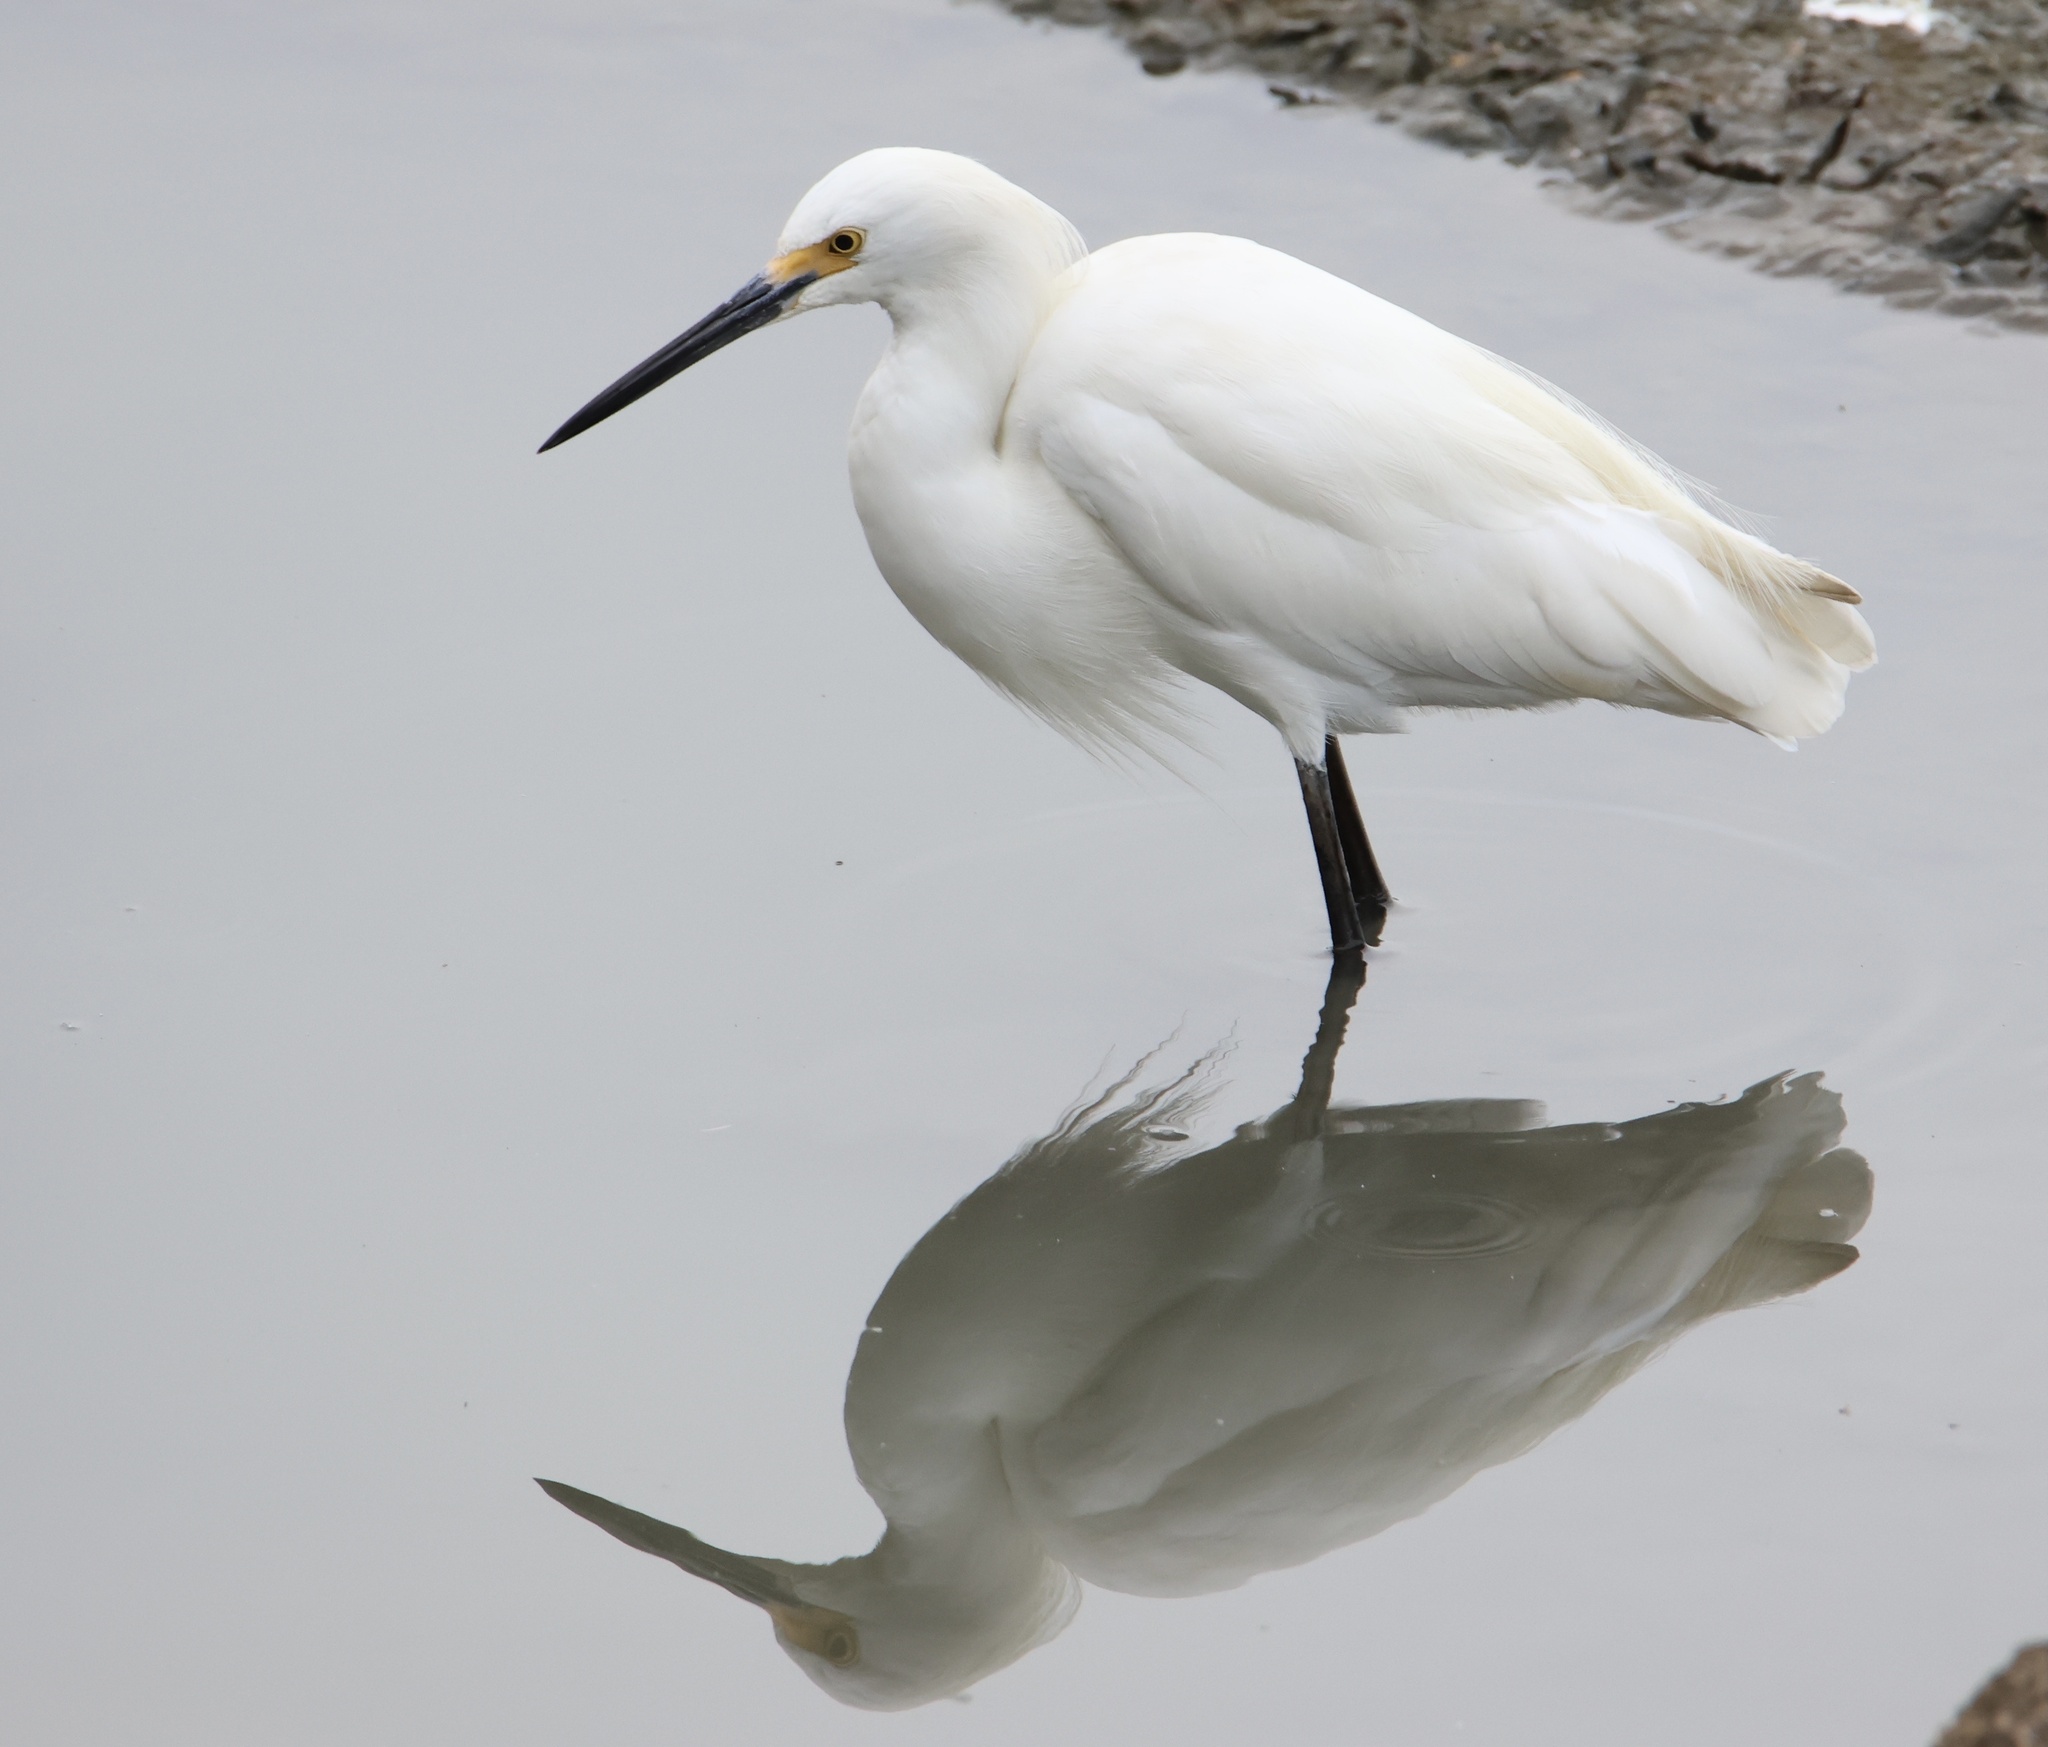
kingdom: Animalia
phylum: Chordata
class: Aves
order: Pelecaniformes
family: Ardeidae
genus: Egretta
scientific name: Egretta thula
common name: Snowy egret
